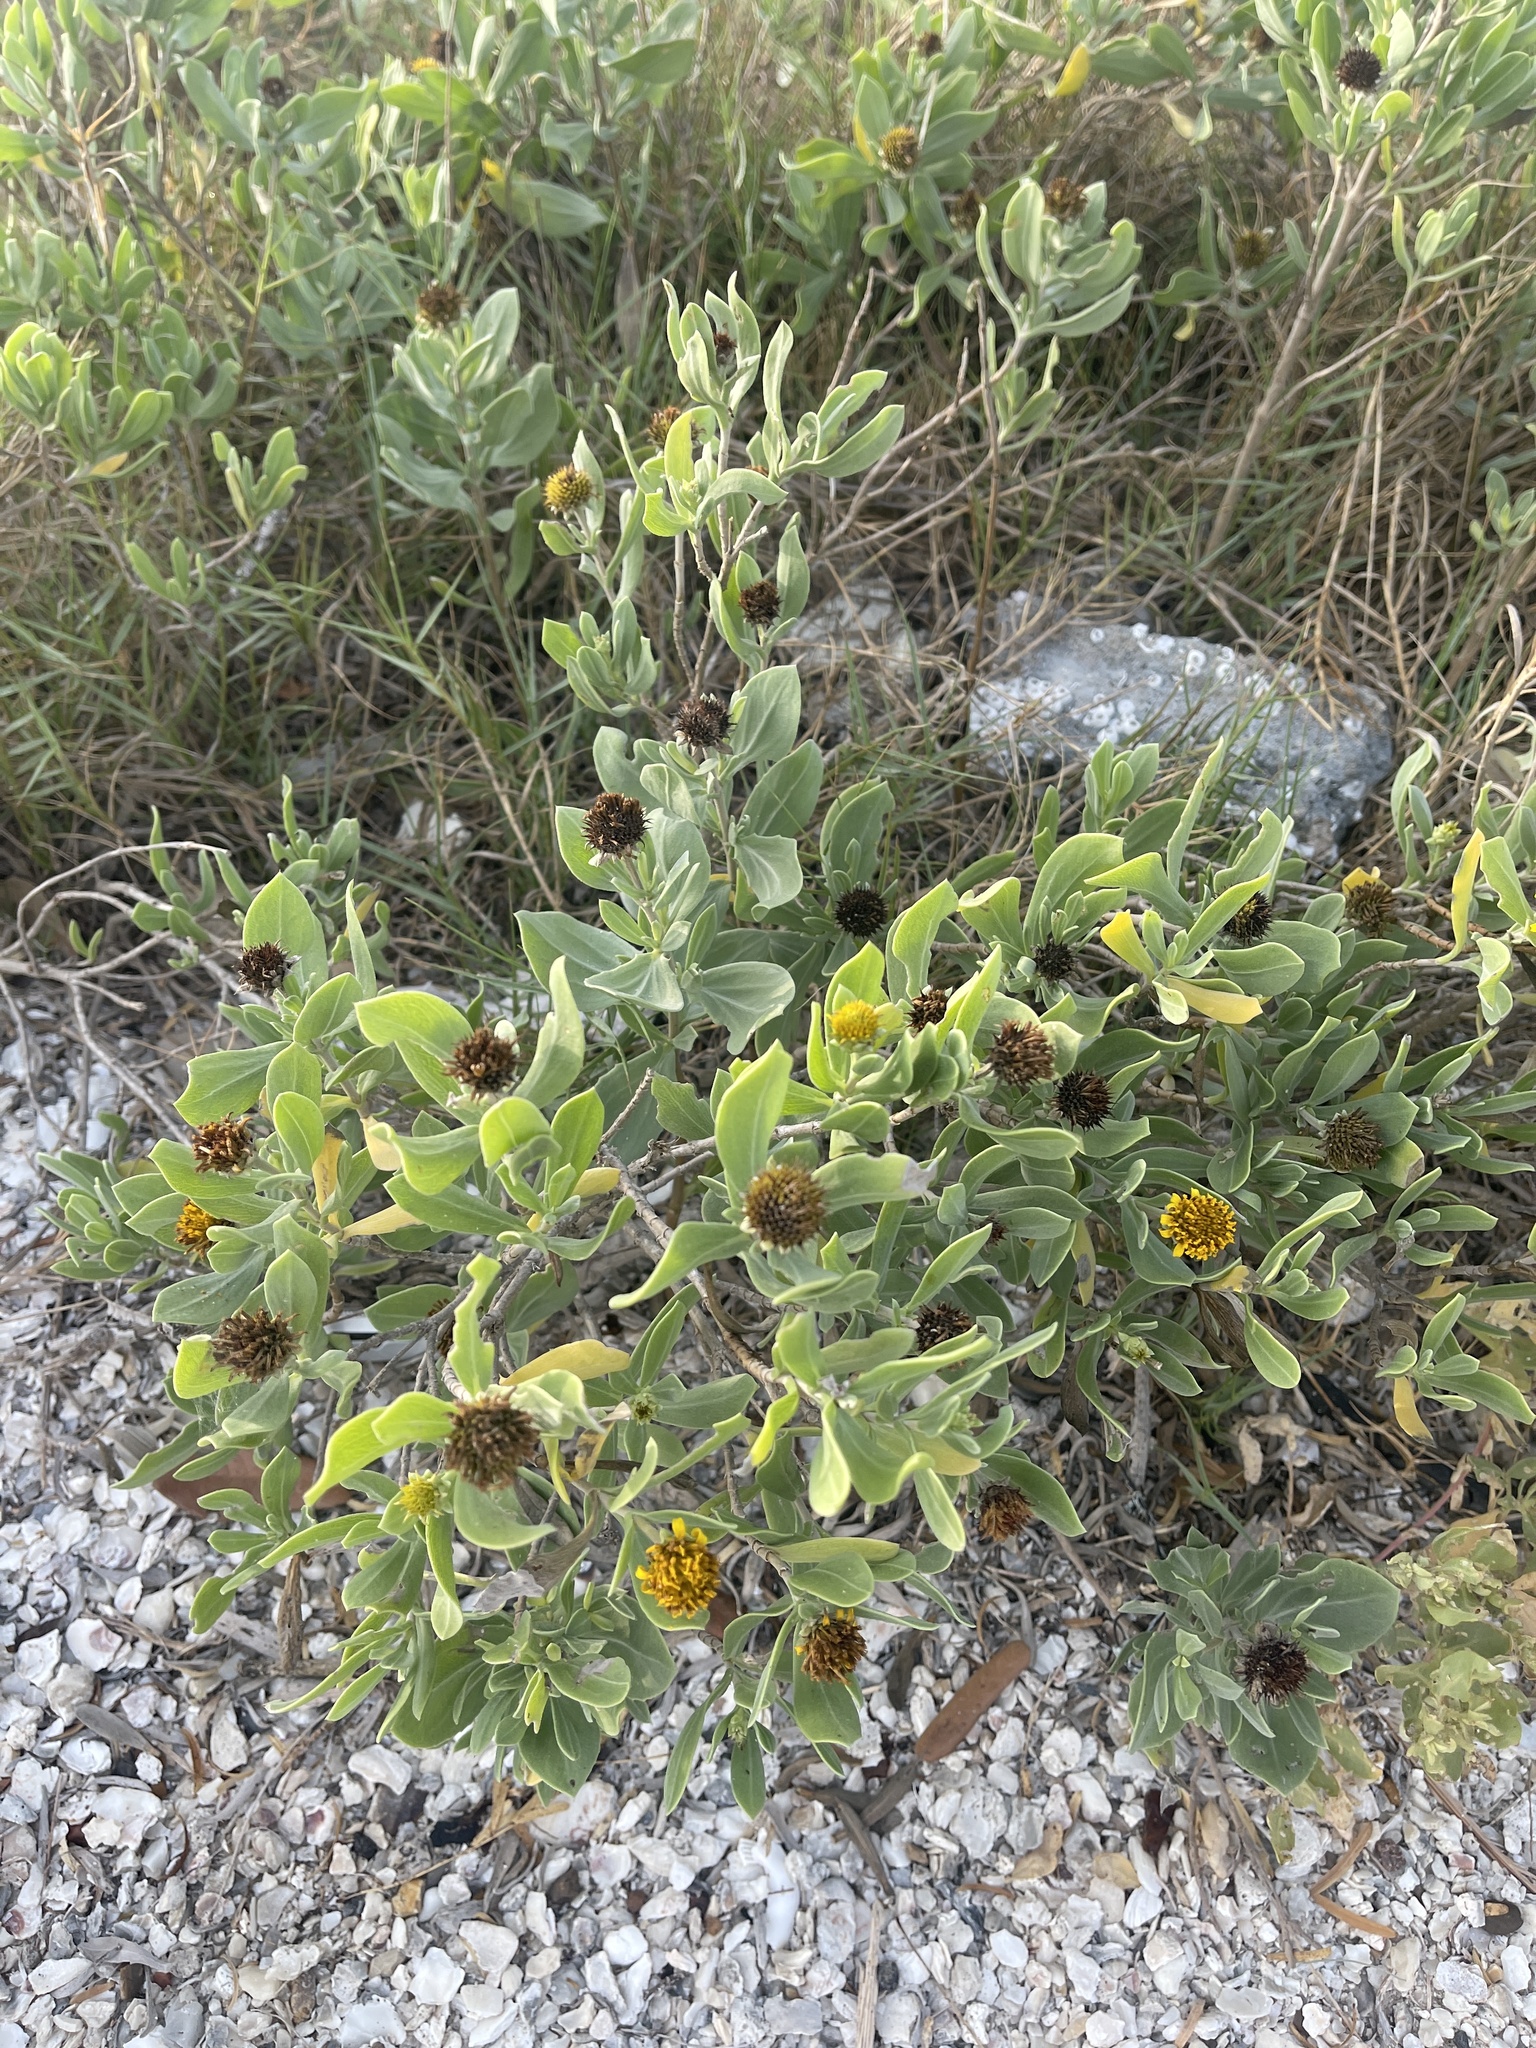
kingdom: Plantae
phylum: Tracheophyta
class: Magnoliopsida
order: Asterales
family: Asteraceae
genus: Borrichia
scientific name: Borrichia frutescens
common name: Sea oxeye
